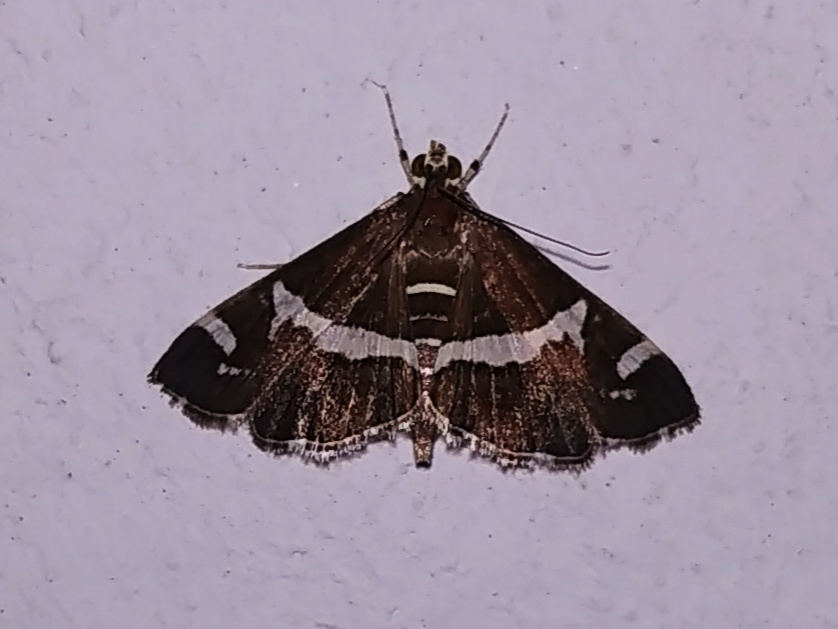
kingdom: Animalia
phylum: Arthropoda
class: Insecta
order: Lepidoptera
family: Crambidae
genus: Spoladea
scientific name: Spoladea recurvalis
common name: Beet webworm moth
